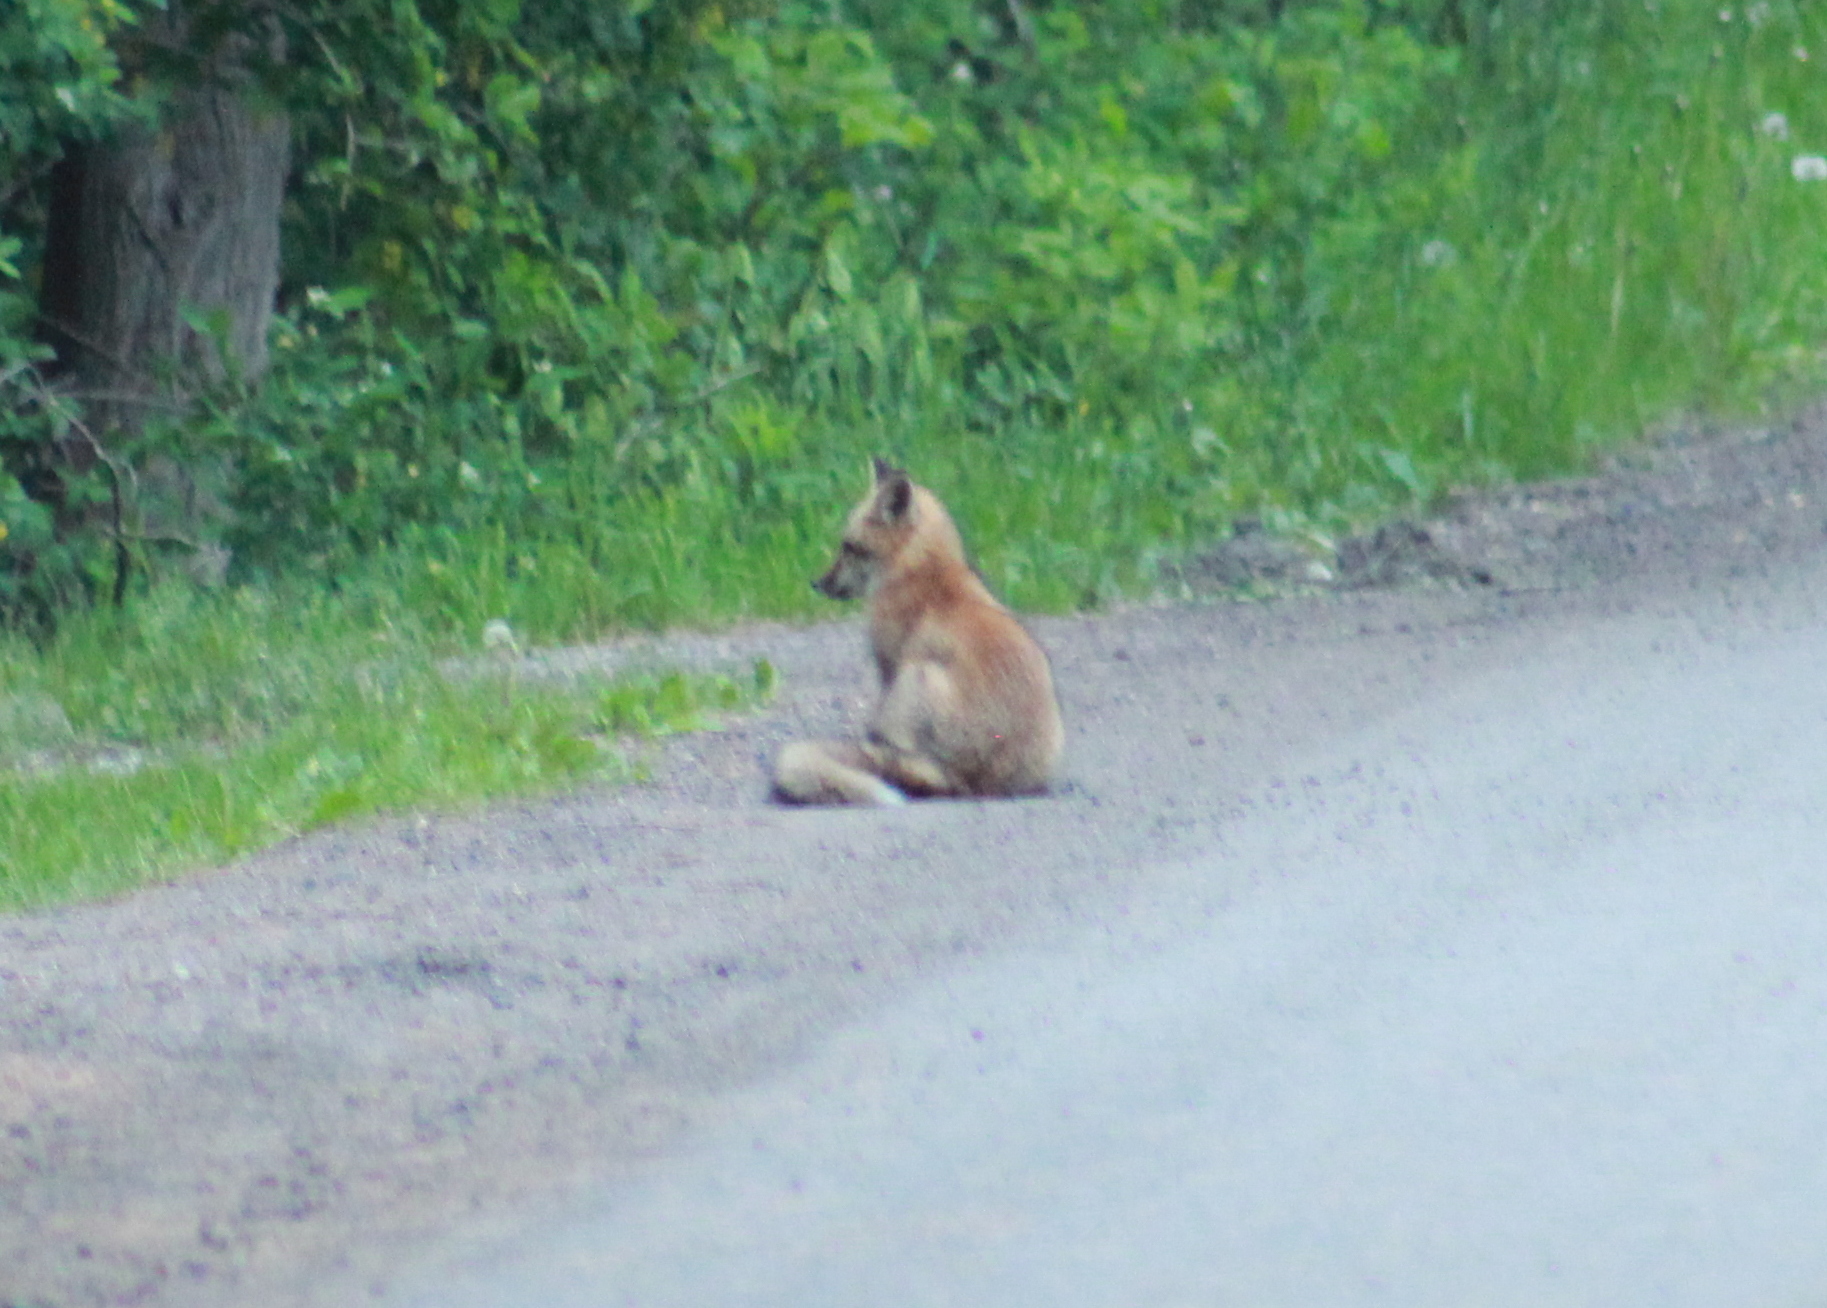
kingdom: Animalia
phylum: Chordata
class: Mammalia
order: Carnivora
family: Canidae
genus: Vulpes
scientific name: Vulpes vulpes
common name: Red fox
